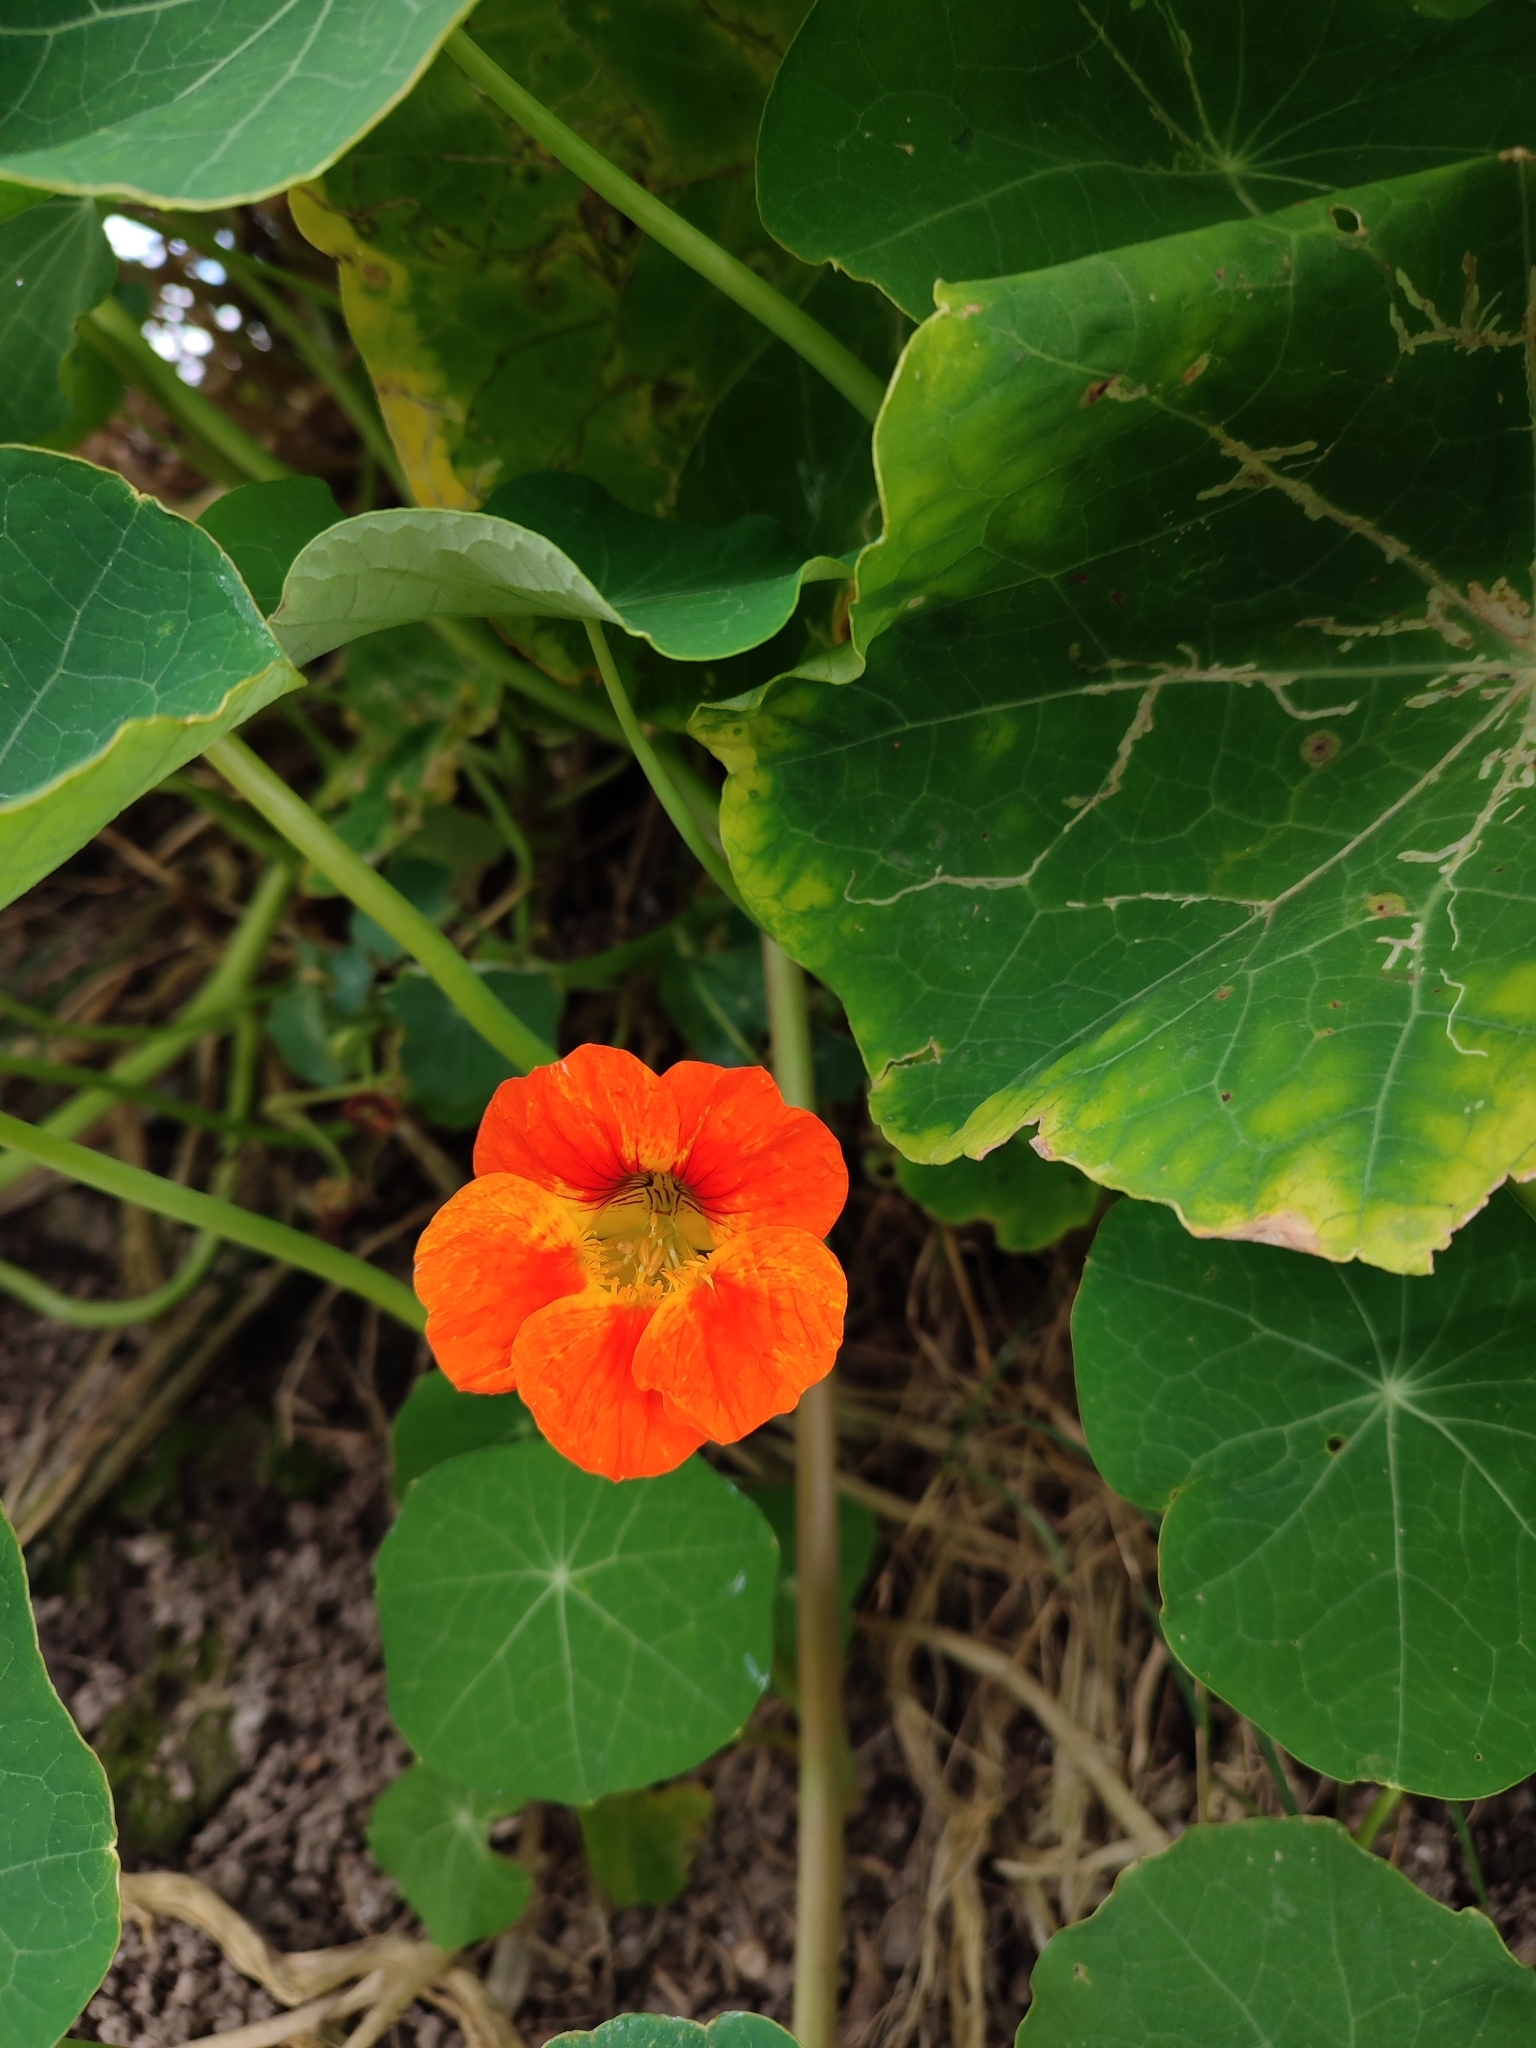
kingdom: Plantae
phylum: Tracheophyta
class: Magnoliopsida
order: Brassicales
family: Tropaeolaceae
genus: Tropaeolum
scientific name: Tropaeolum majus
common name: Nasturtium
